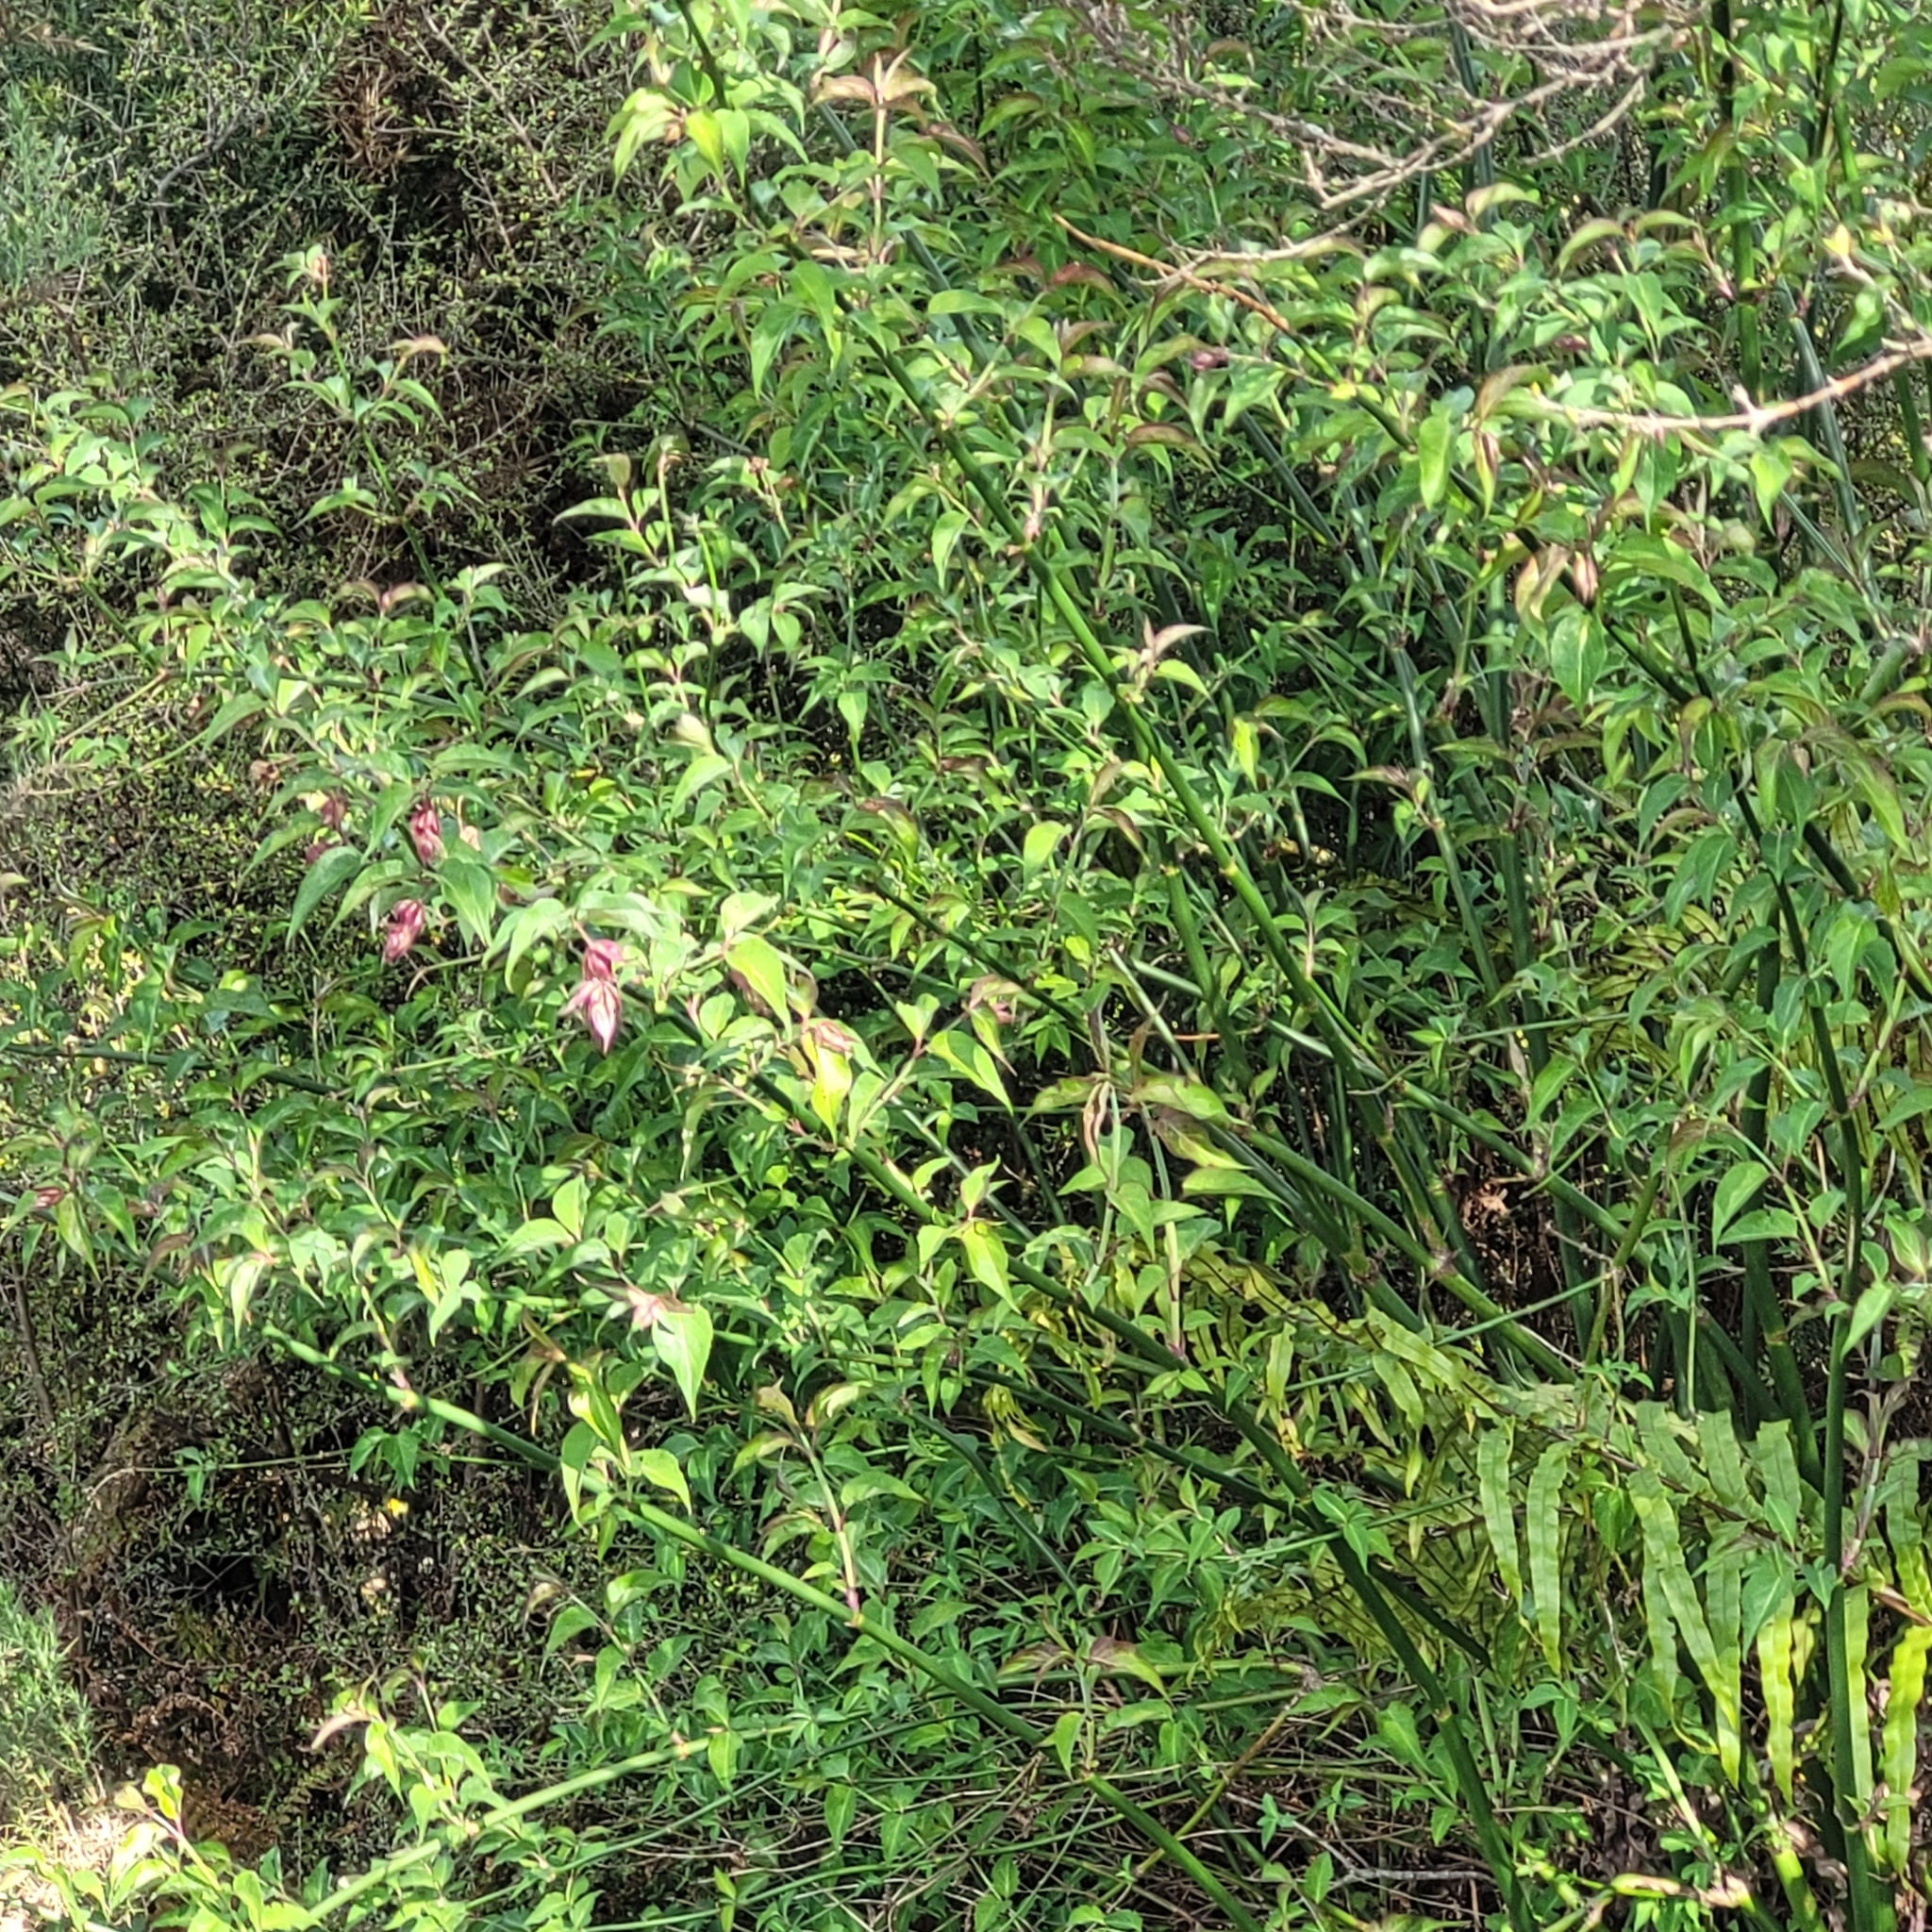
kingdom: Plantae
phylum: Tracheophyta
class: Magnoliopsida
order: Dipsacales
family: Caprifoliaceae
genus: Leycesteria
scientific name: Leycesteria formosa
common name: Himalayan honeysuckle
